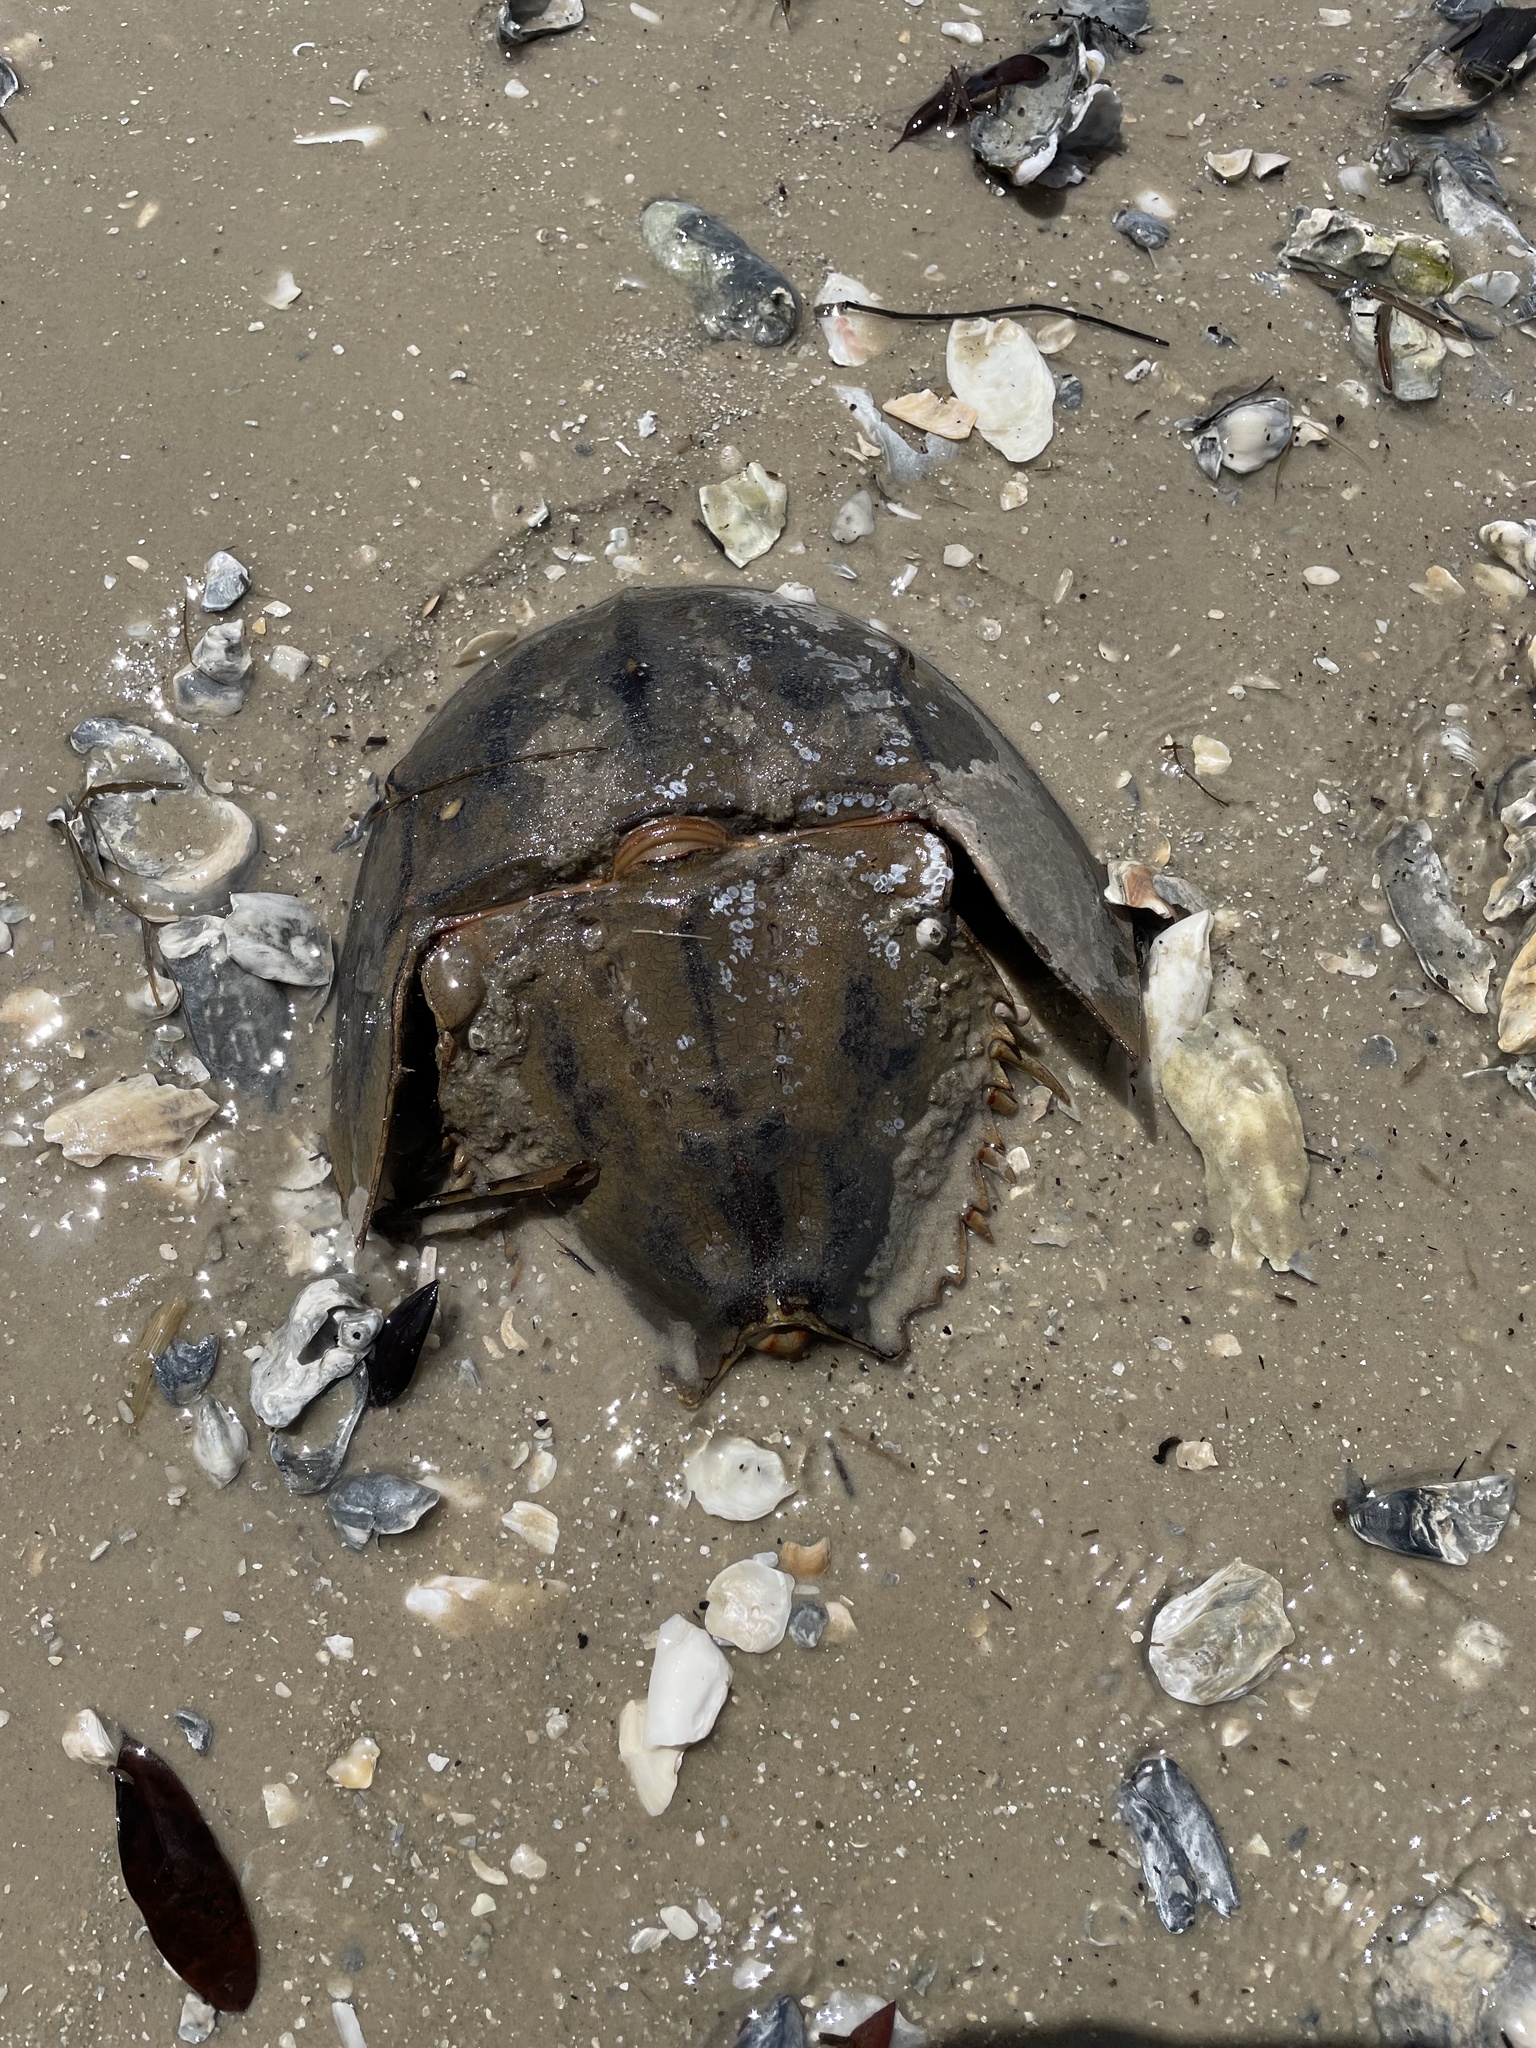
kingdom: Animalia
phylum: Arthropoda
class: Merostomata
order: Xiphosurida
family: Limulidae
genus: Limulus
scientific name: Limulus polyphemus
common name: Horseshoe crab
